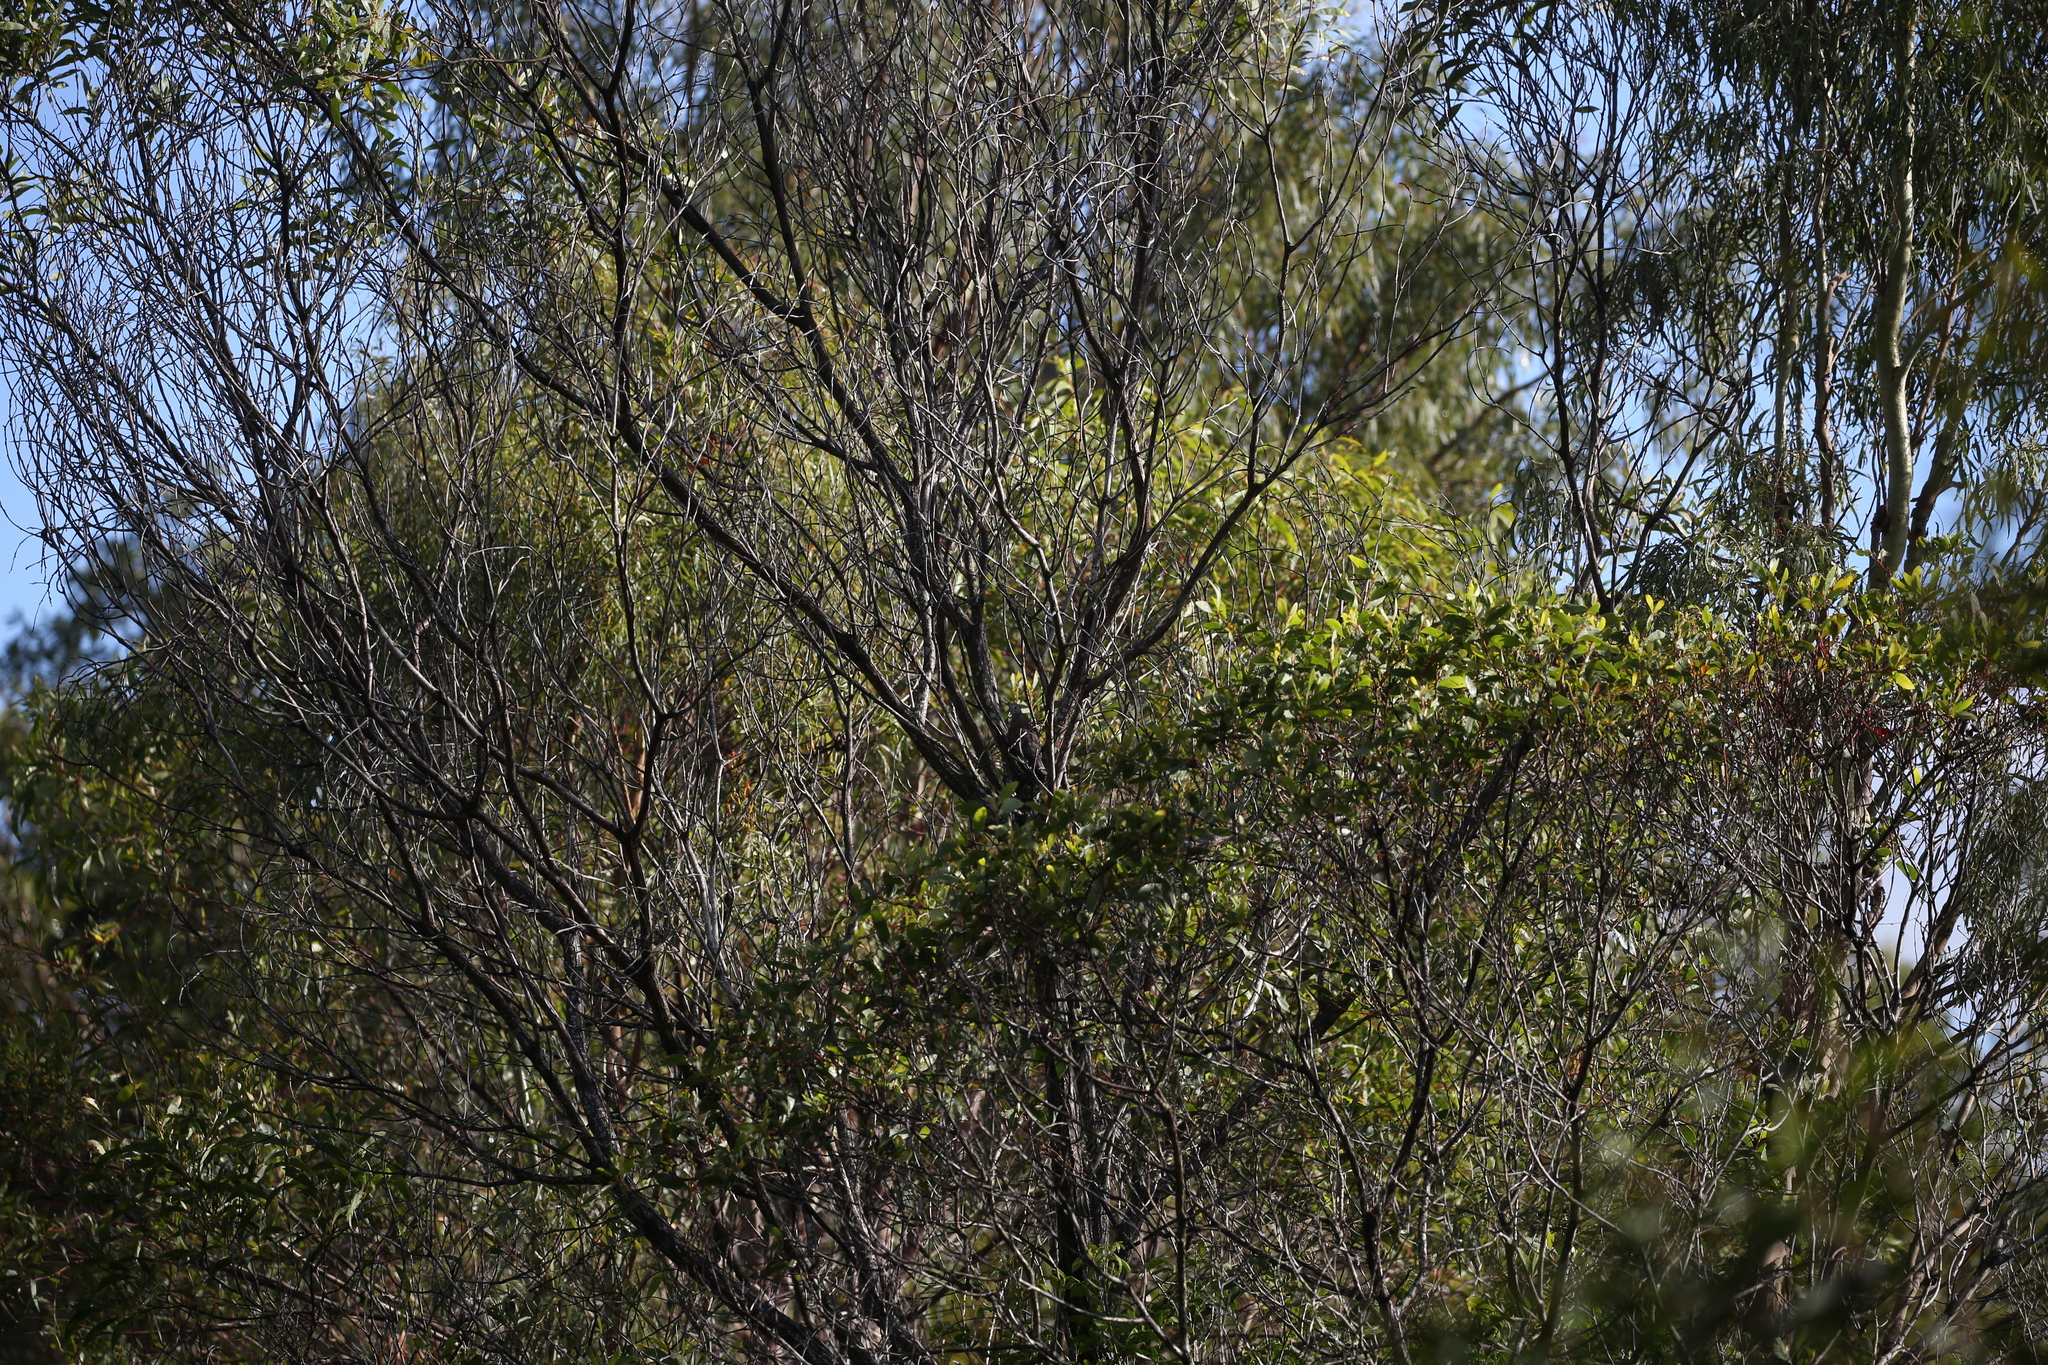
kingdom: Animalia
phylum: Chordata
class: Aves
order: Columbiformes
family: Columbidae
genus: Geopelia
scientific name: Geopelia humeralis
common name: Bar-shouldered dove
